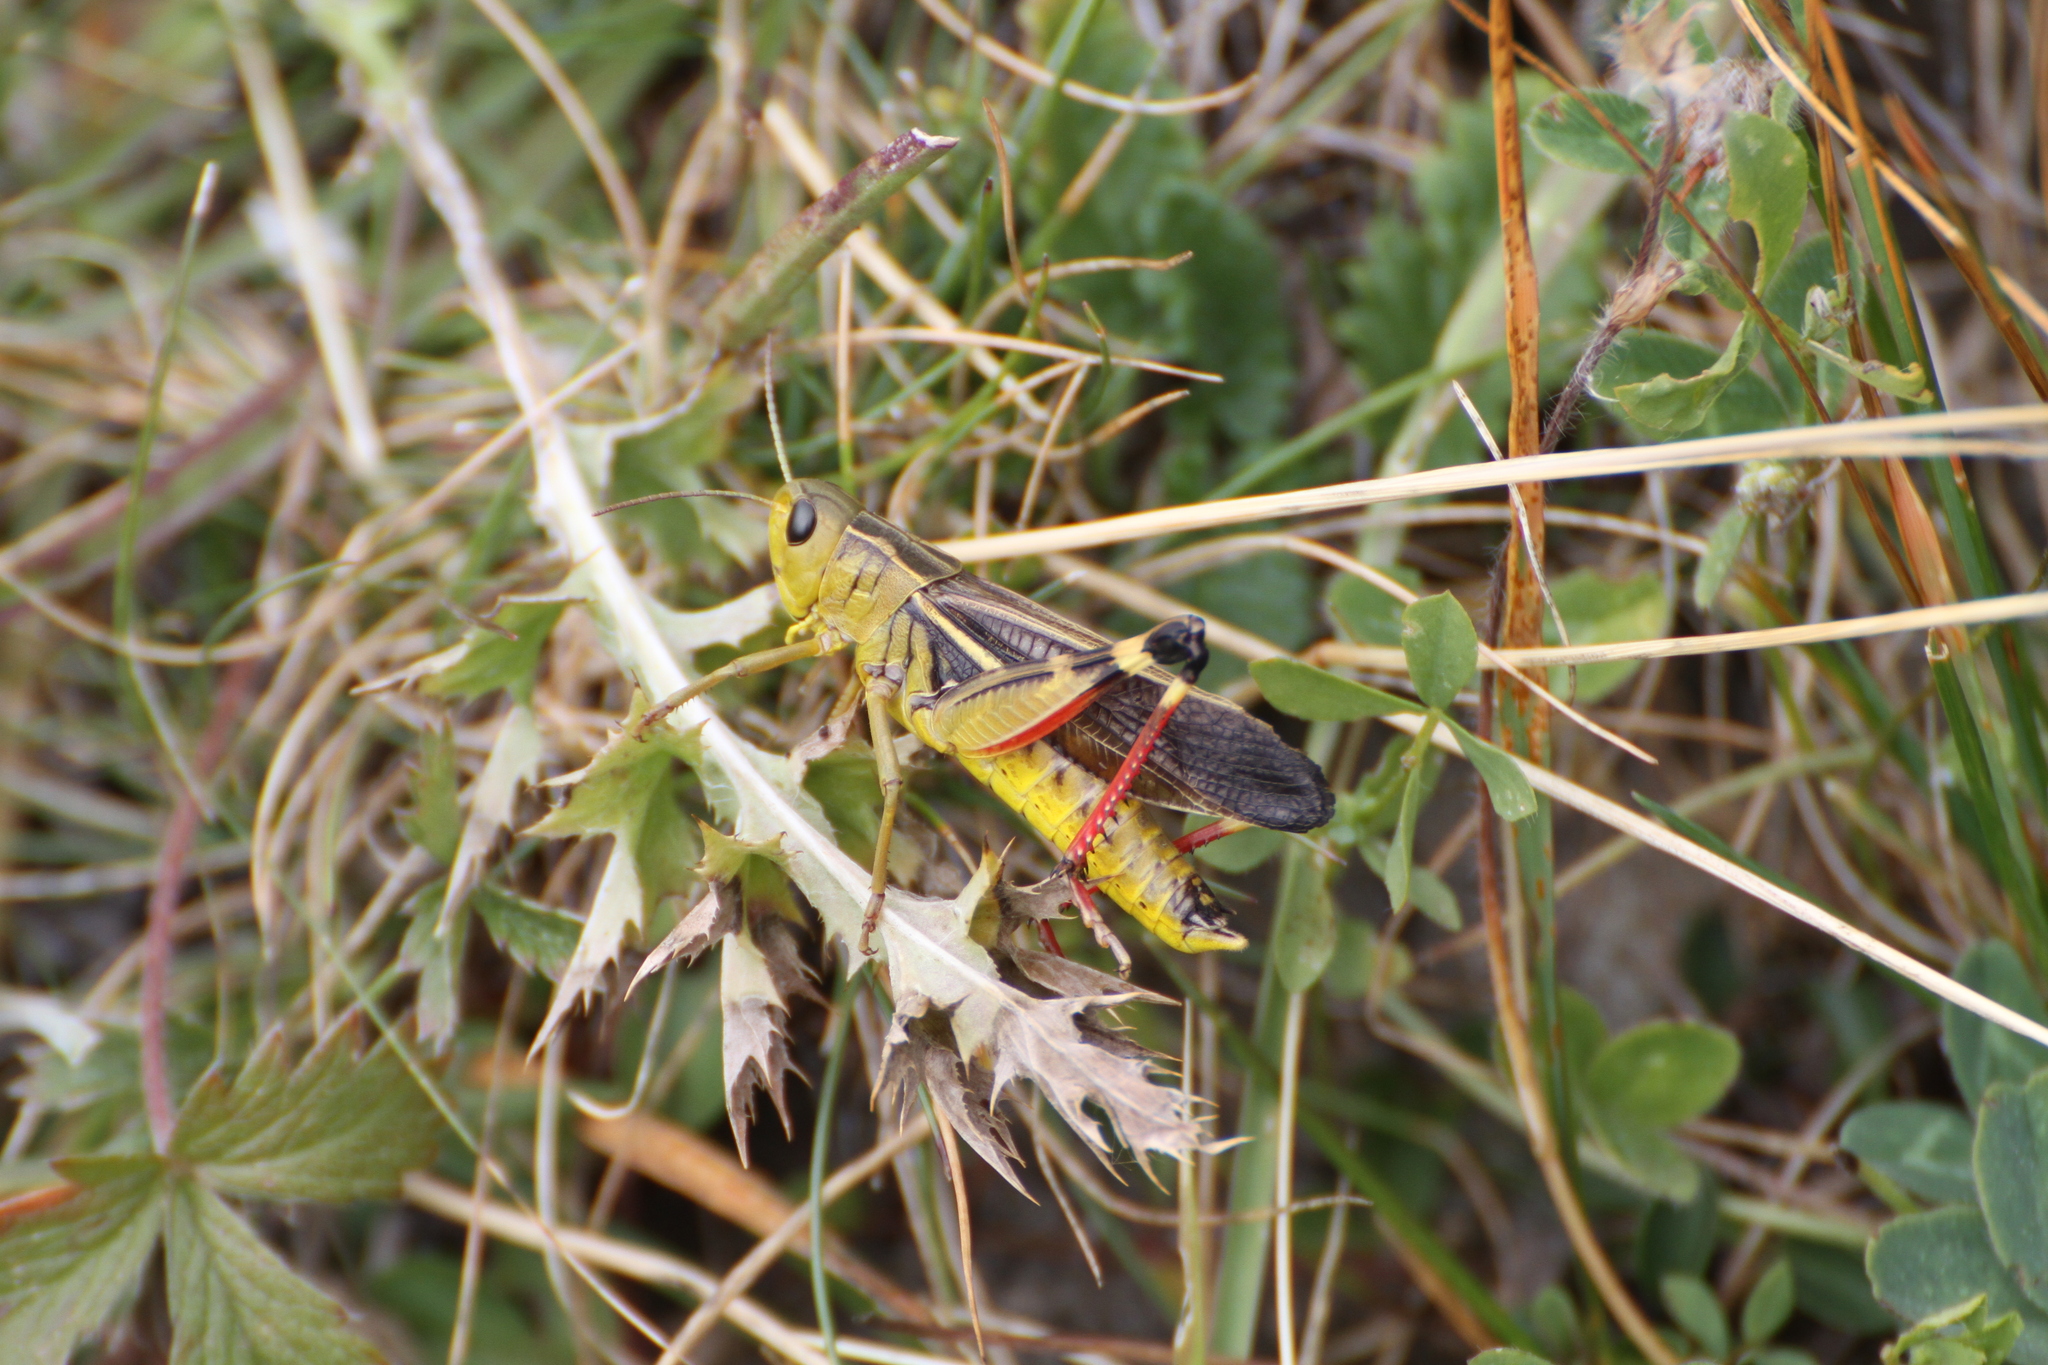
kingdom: Animalia
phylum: Arthropoda
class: Insecta
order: Orthoptera
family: Acrididae
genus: Arcyptera
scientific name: Arcyptera fusca
